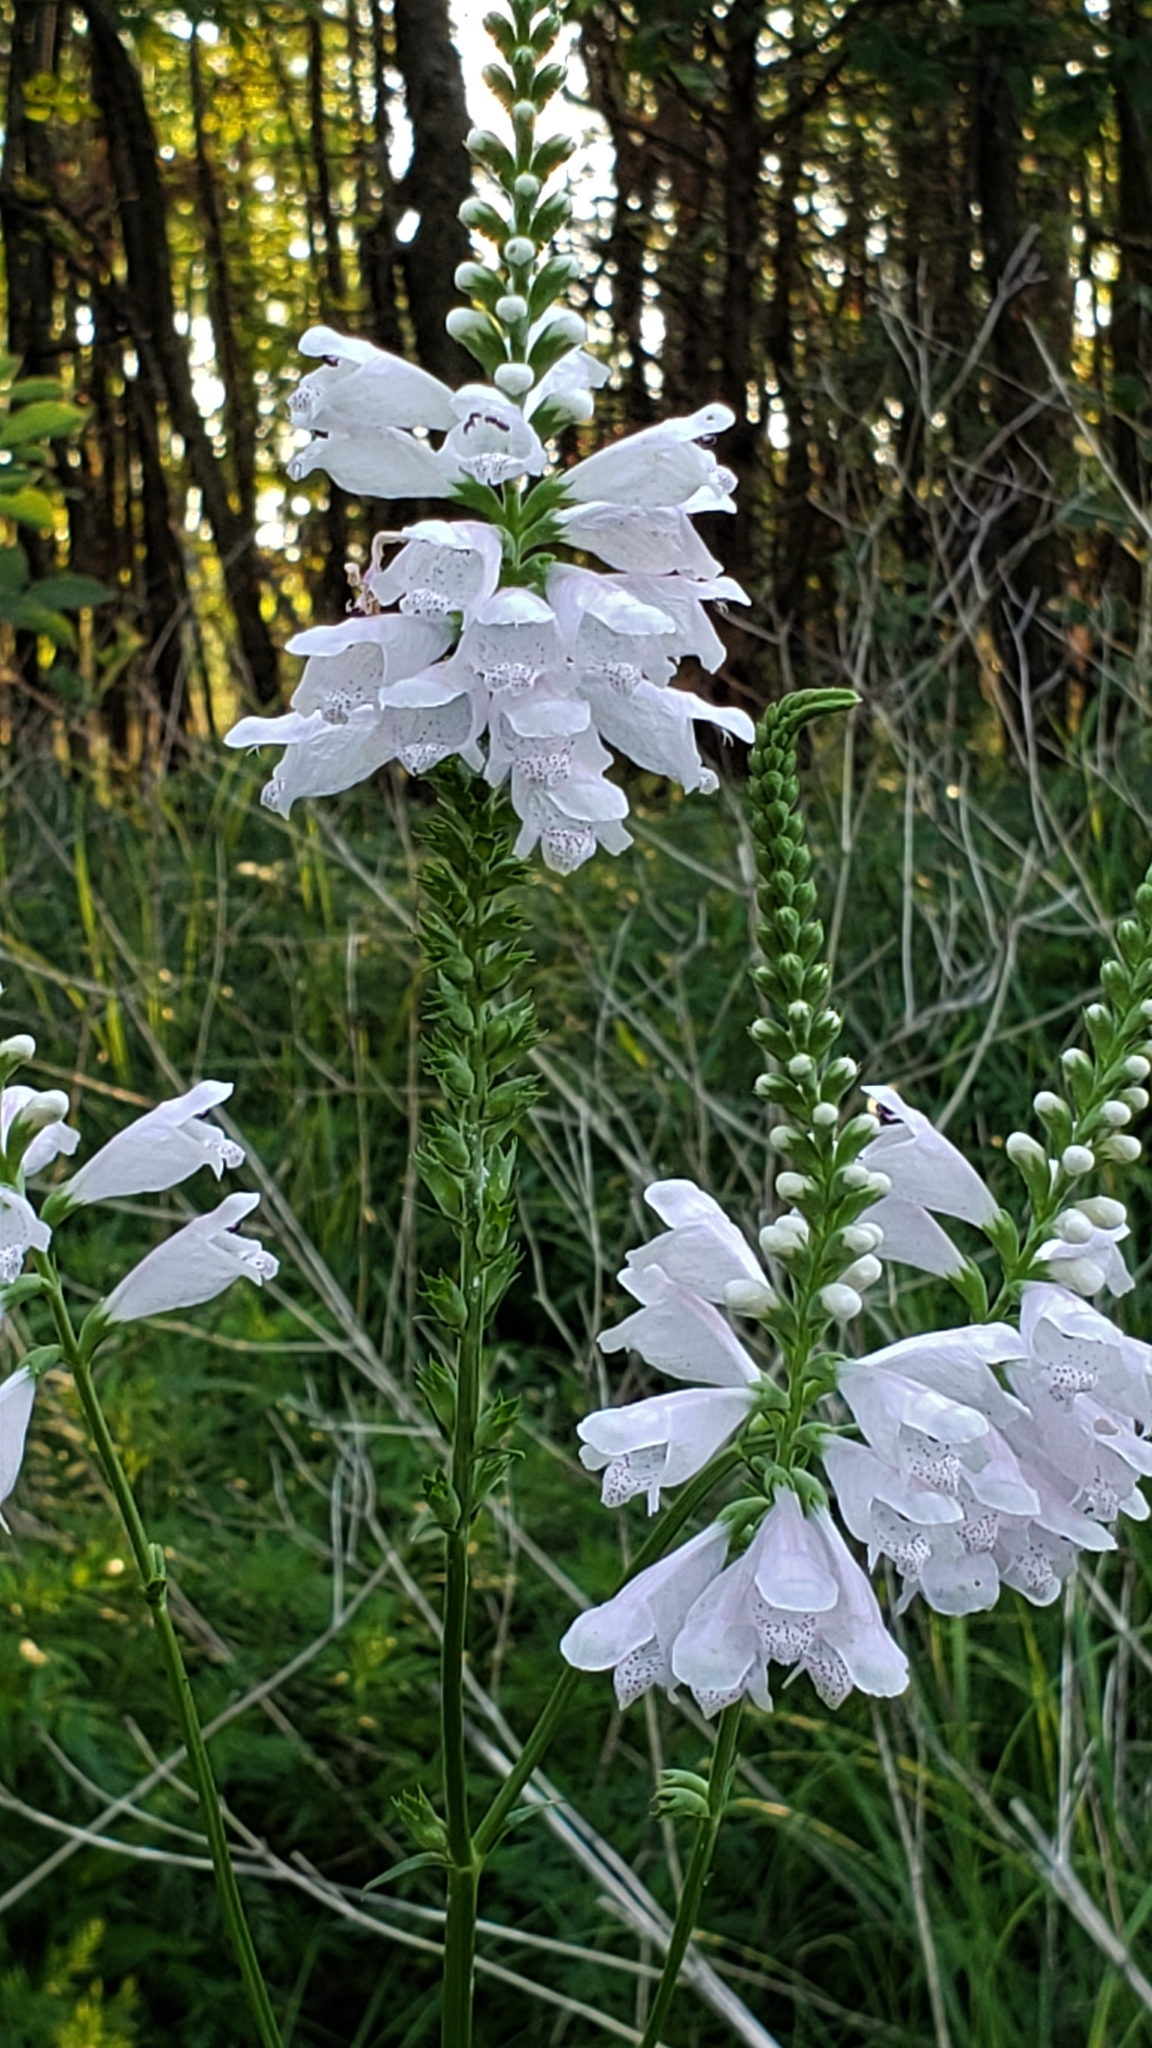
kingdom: Plantae
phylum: Tracheophyta
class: Magnoliopsida
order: Lamiales
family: Lamiaceae
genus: Physostegia
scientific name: Physostegia angustifolia
